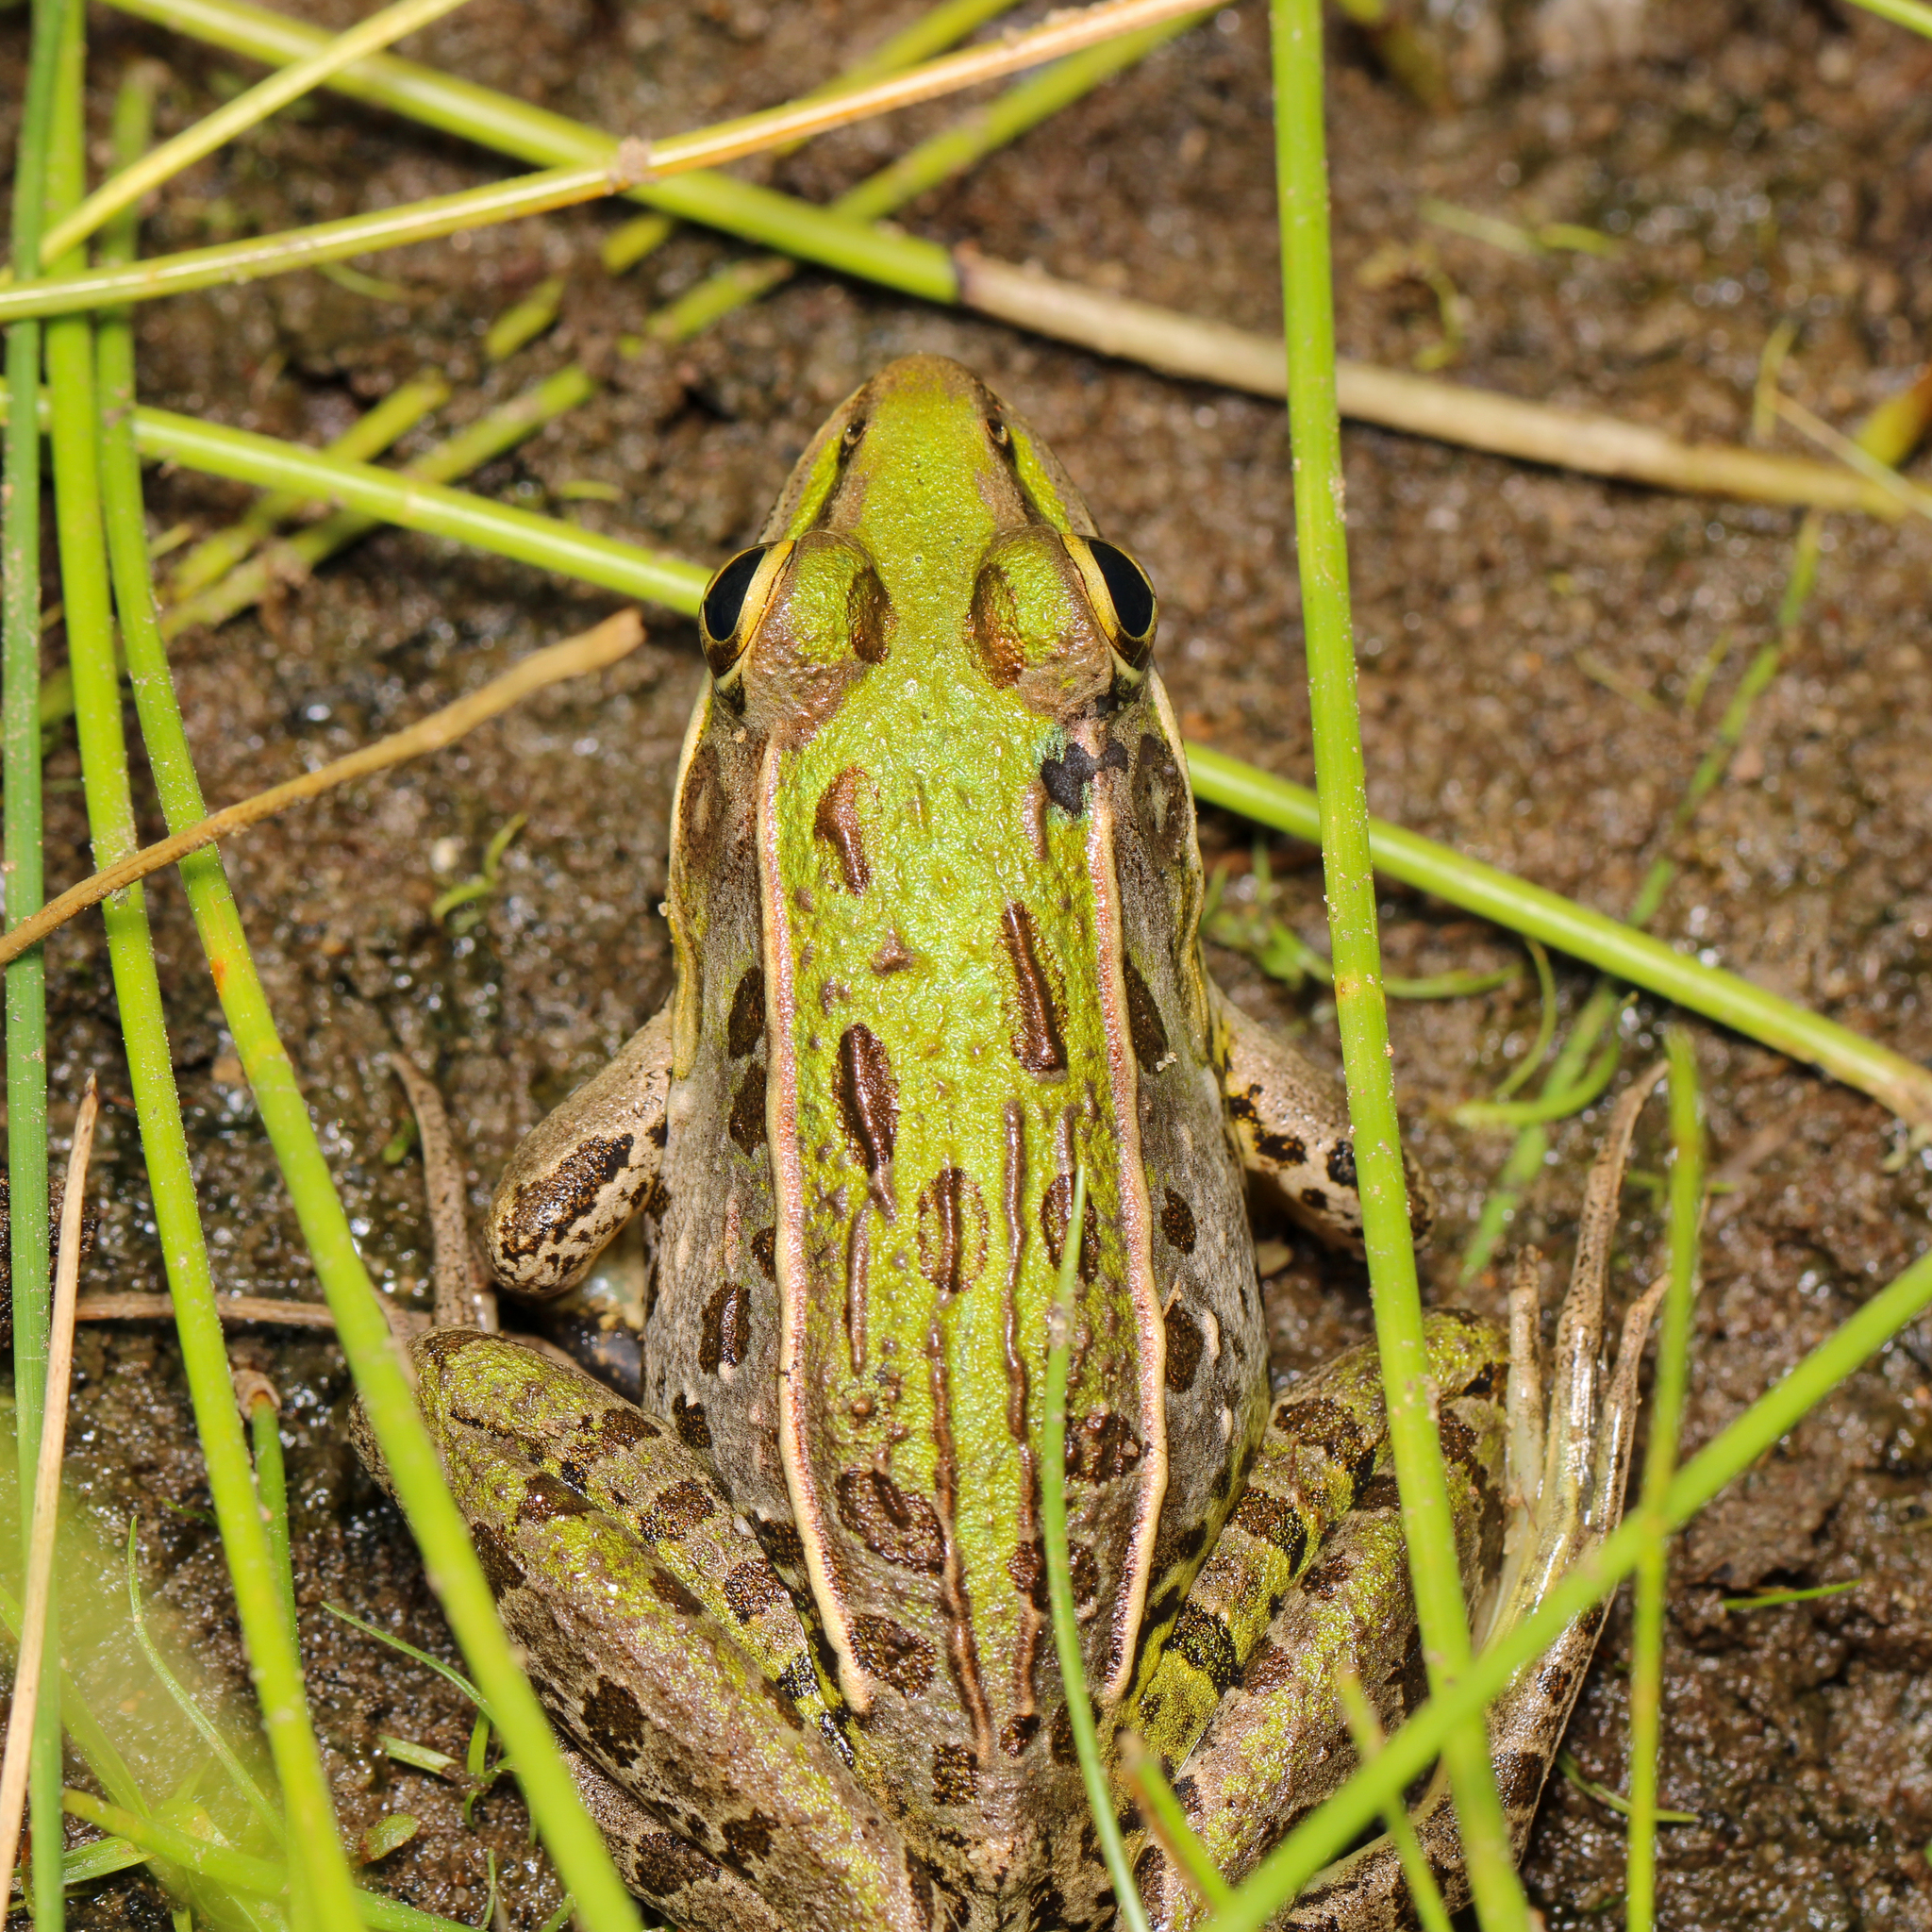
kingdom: Animalia
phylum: Chordata
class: Amphibia
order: Anura
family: Ranidae
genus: Lithobates
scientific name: Lithobates sphenocephalus
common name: Southern leopard frog
